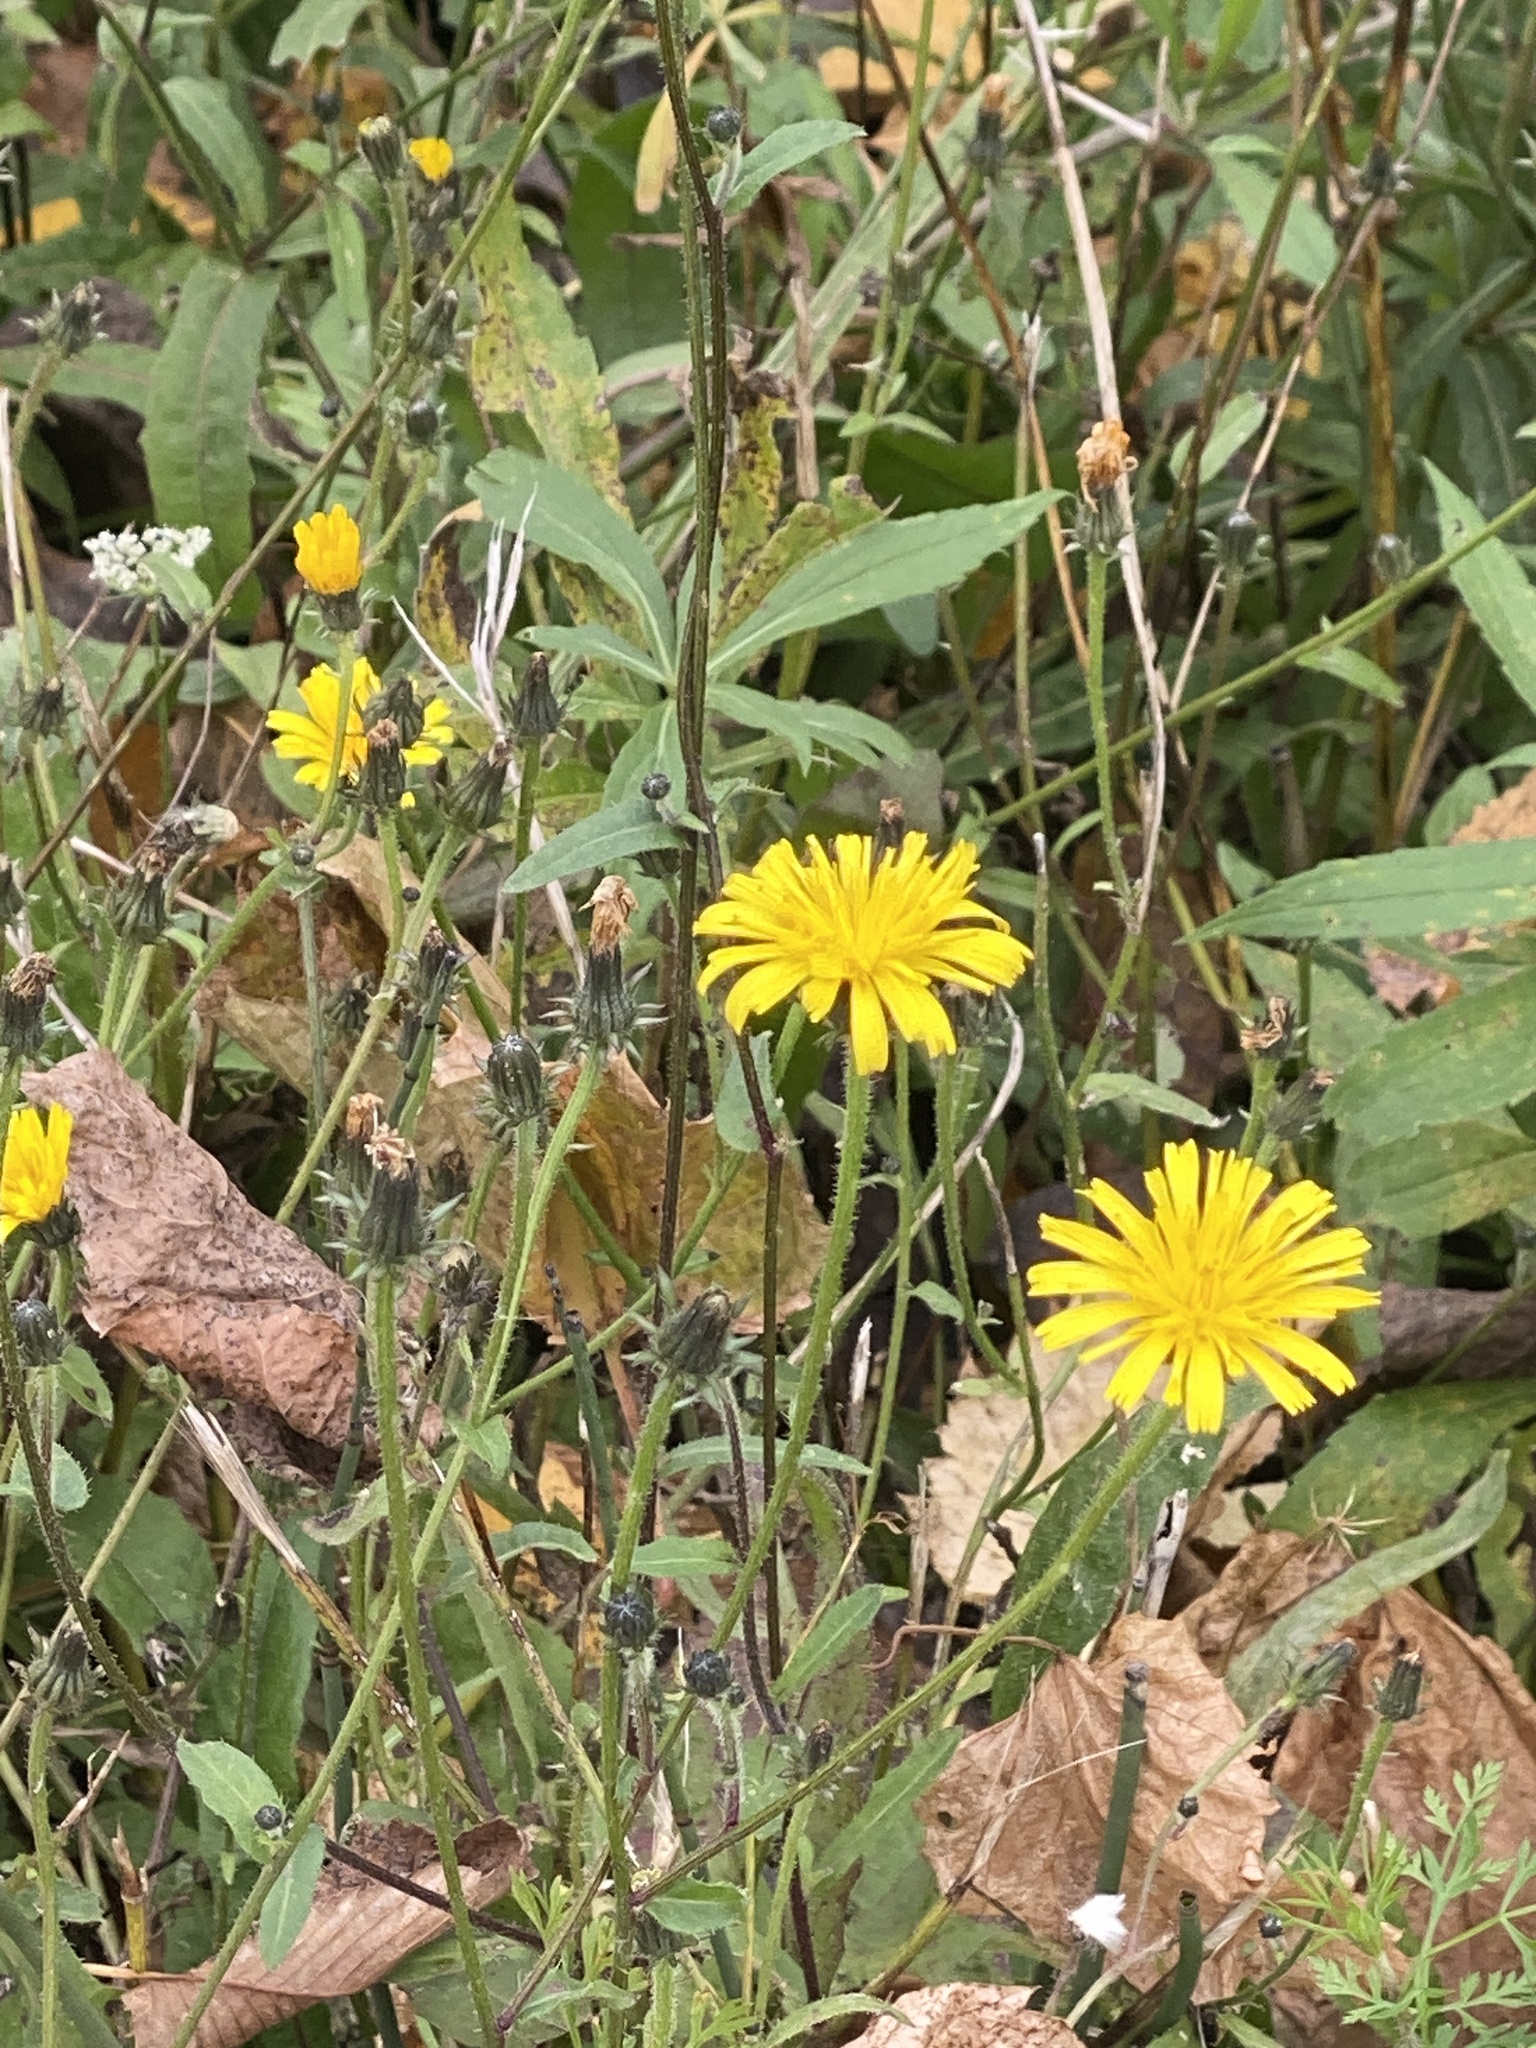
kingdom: Plantae
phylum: Tracheophyta
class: Magnoliopsida
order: Asterales
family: Asteraceae
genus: Picris
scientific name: Picris hieracioides
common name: Hawkweed oxtongue
